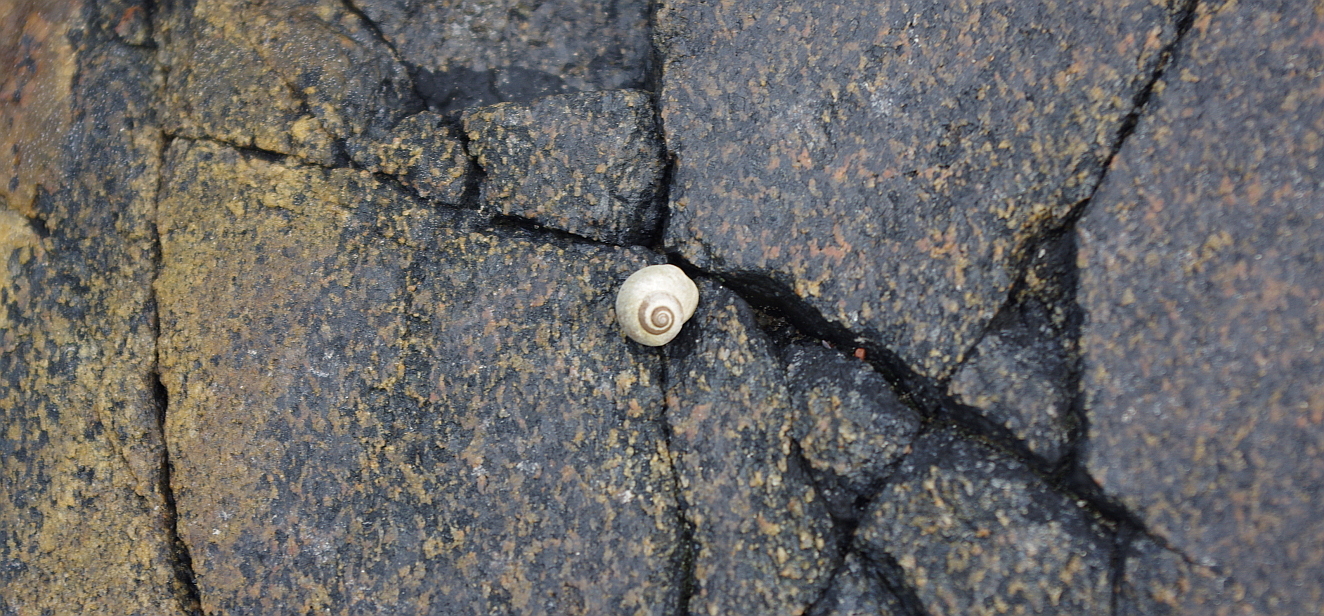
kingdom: Animalia
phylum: Mollusca
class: Gastropoda
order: Littorinimorpha
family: Littorinidae
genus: Littorina
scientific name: Littorina saxatilis
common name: Black-lined periwinkle
